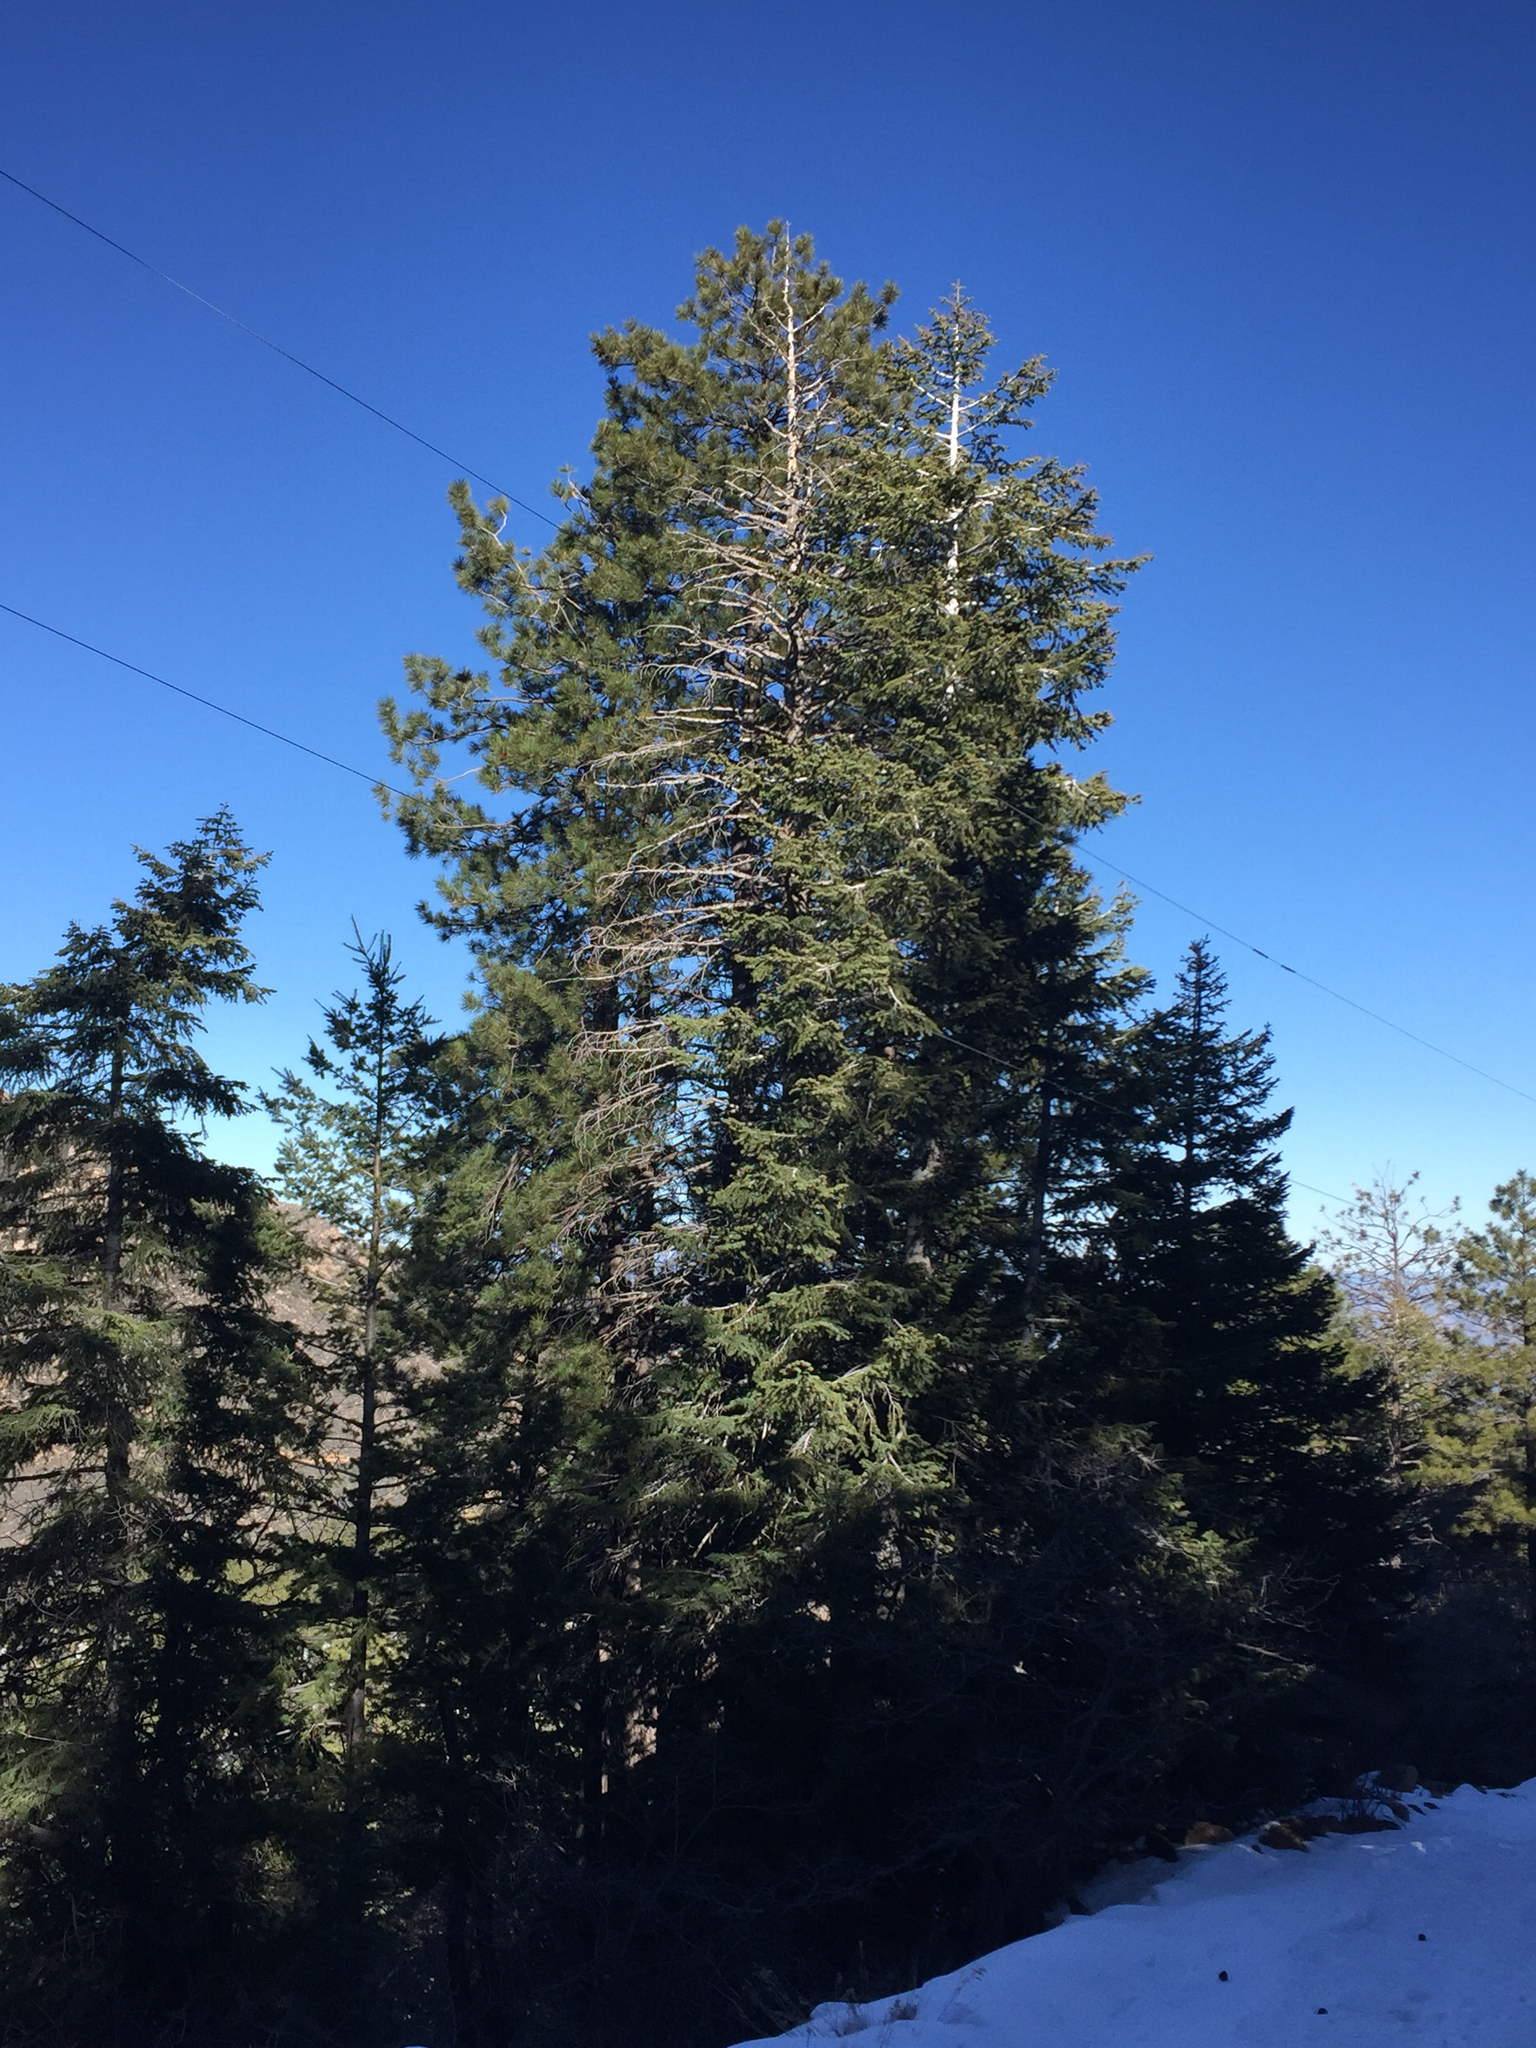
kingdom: Plantae
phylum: Tracheophyta
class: Pinopsida
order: Pinales
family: Pinaceae
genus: Abies
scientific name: Abies concolor
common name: Colorado fir
